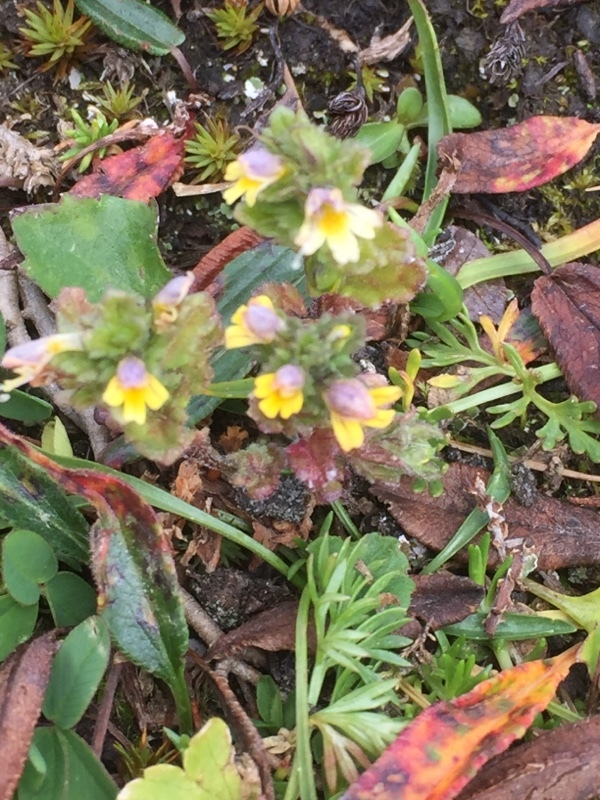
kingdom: Plantae
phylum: Tracheophyta
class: Magnoliopsida
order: Lamiales
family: Orobanchaceae
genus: Euphrasia
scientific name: Euphrasia minima
